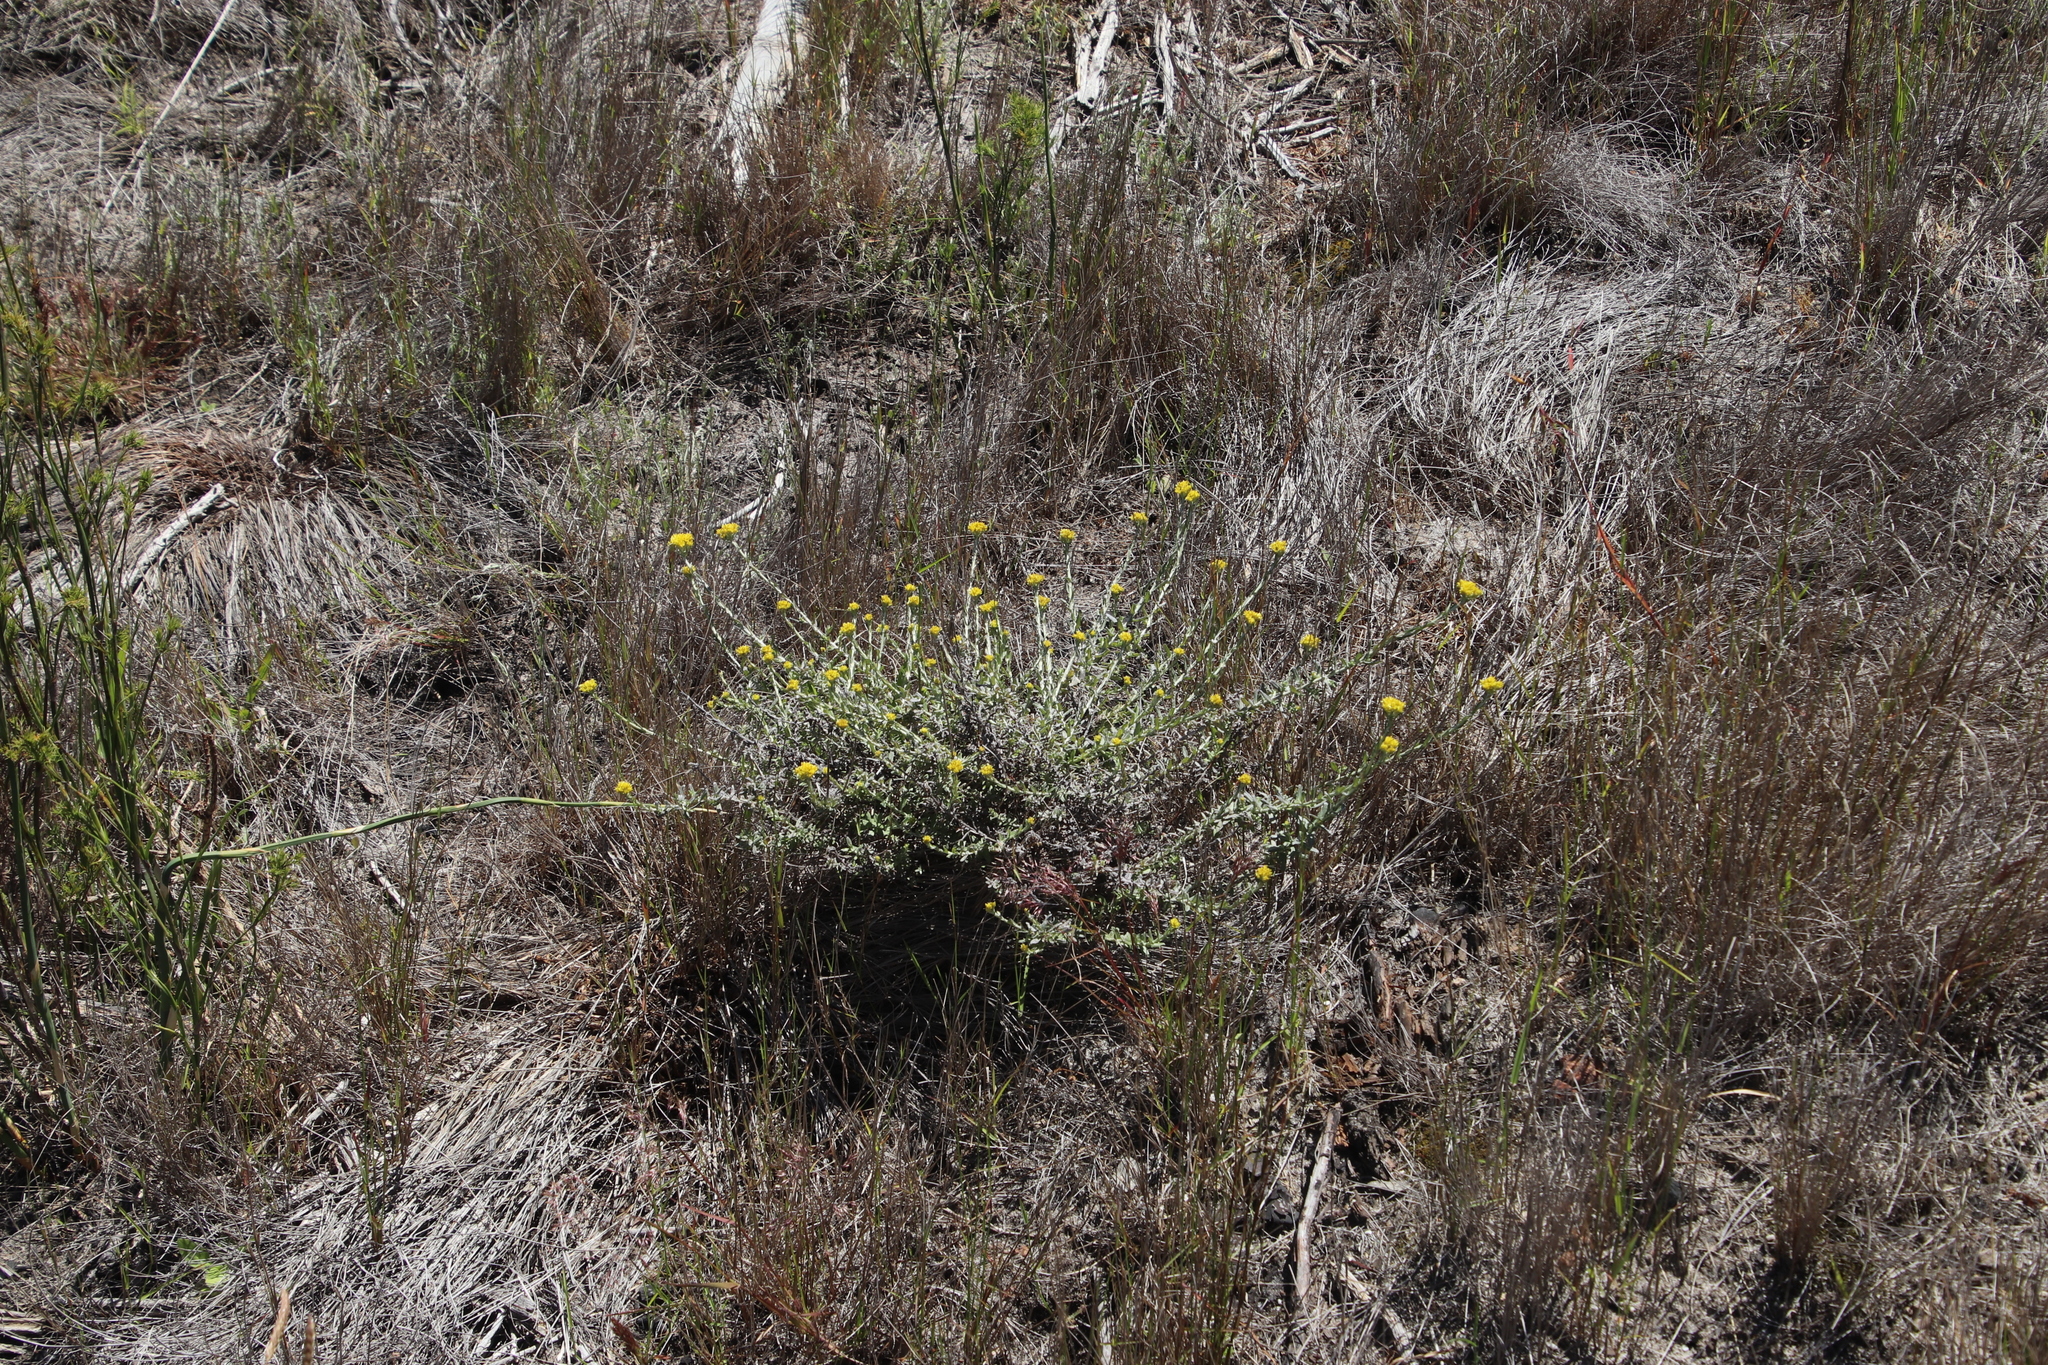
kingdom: Plantae
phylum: Tracheophyta
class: Magnoliopsida
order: Asterales
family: Asteraceae
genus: Helichrysum
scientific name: Helichrysum cymosum
